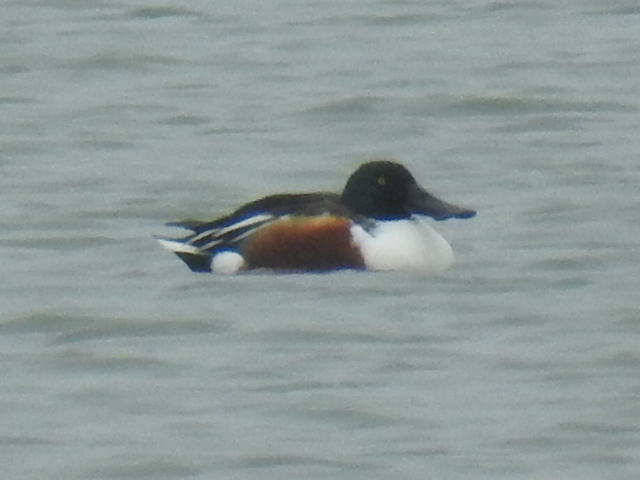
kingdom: Animalia
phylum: Chordata
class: Aves
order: Anseriformes
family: Anatidae
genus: Spatula
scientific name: Spatula clypeata
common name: Northern shoveler
